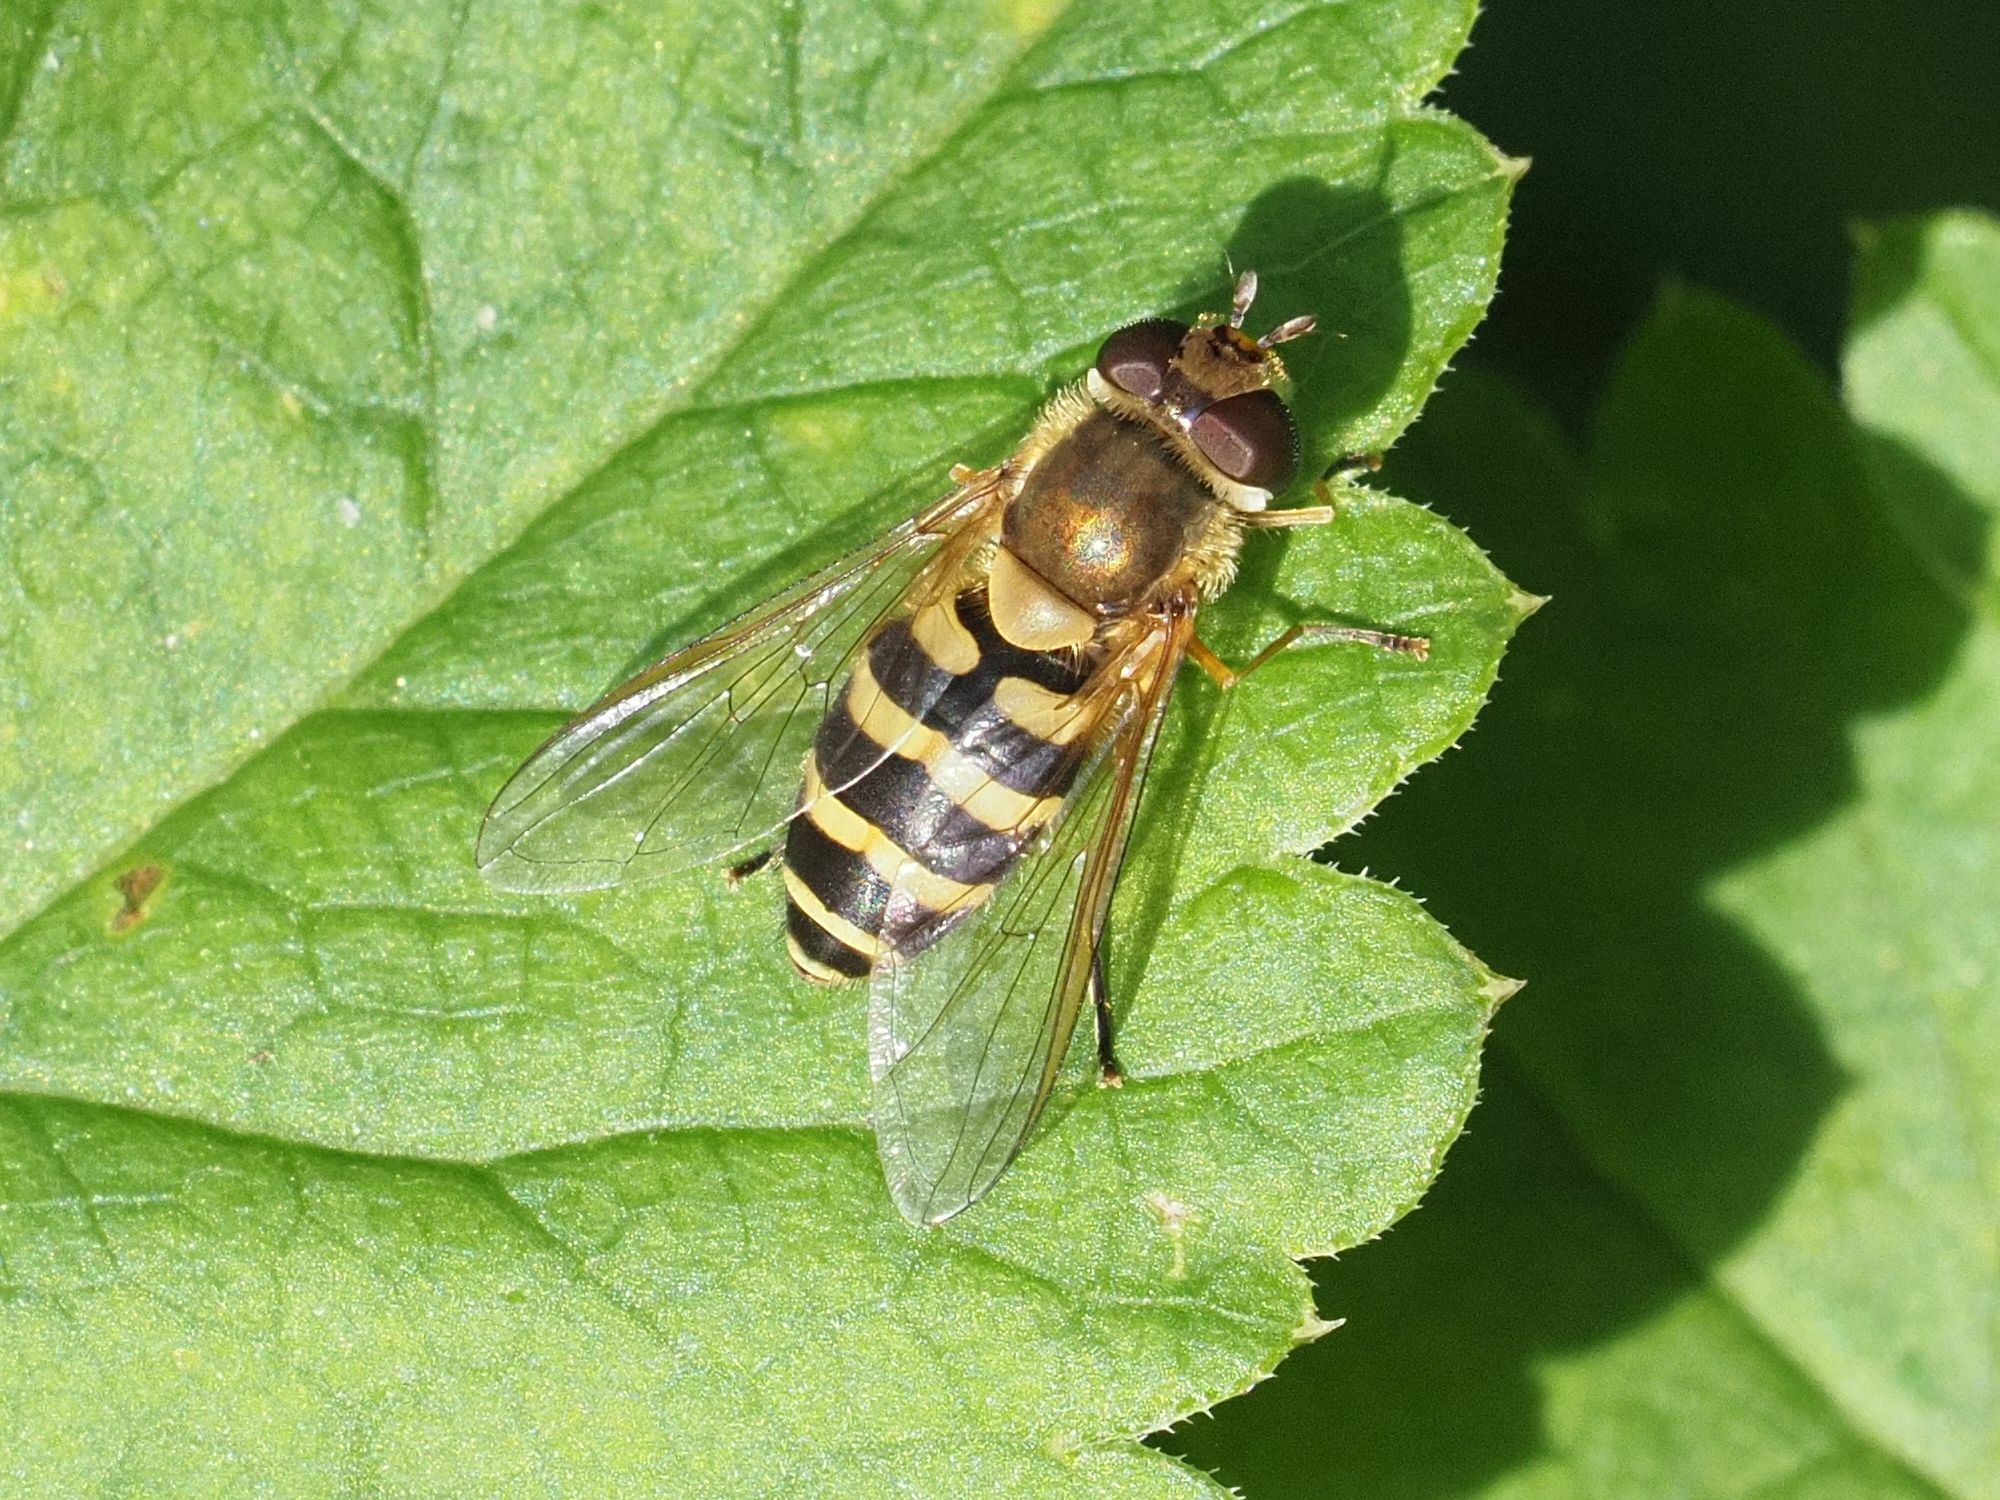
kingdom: Animalia
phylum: Arthropoda
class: Insecta
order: Diptera
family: Syrphidae
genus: Syrphus
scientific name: Syrphus
